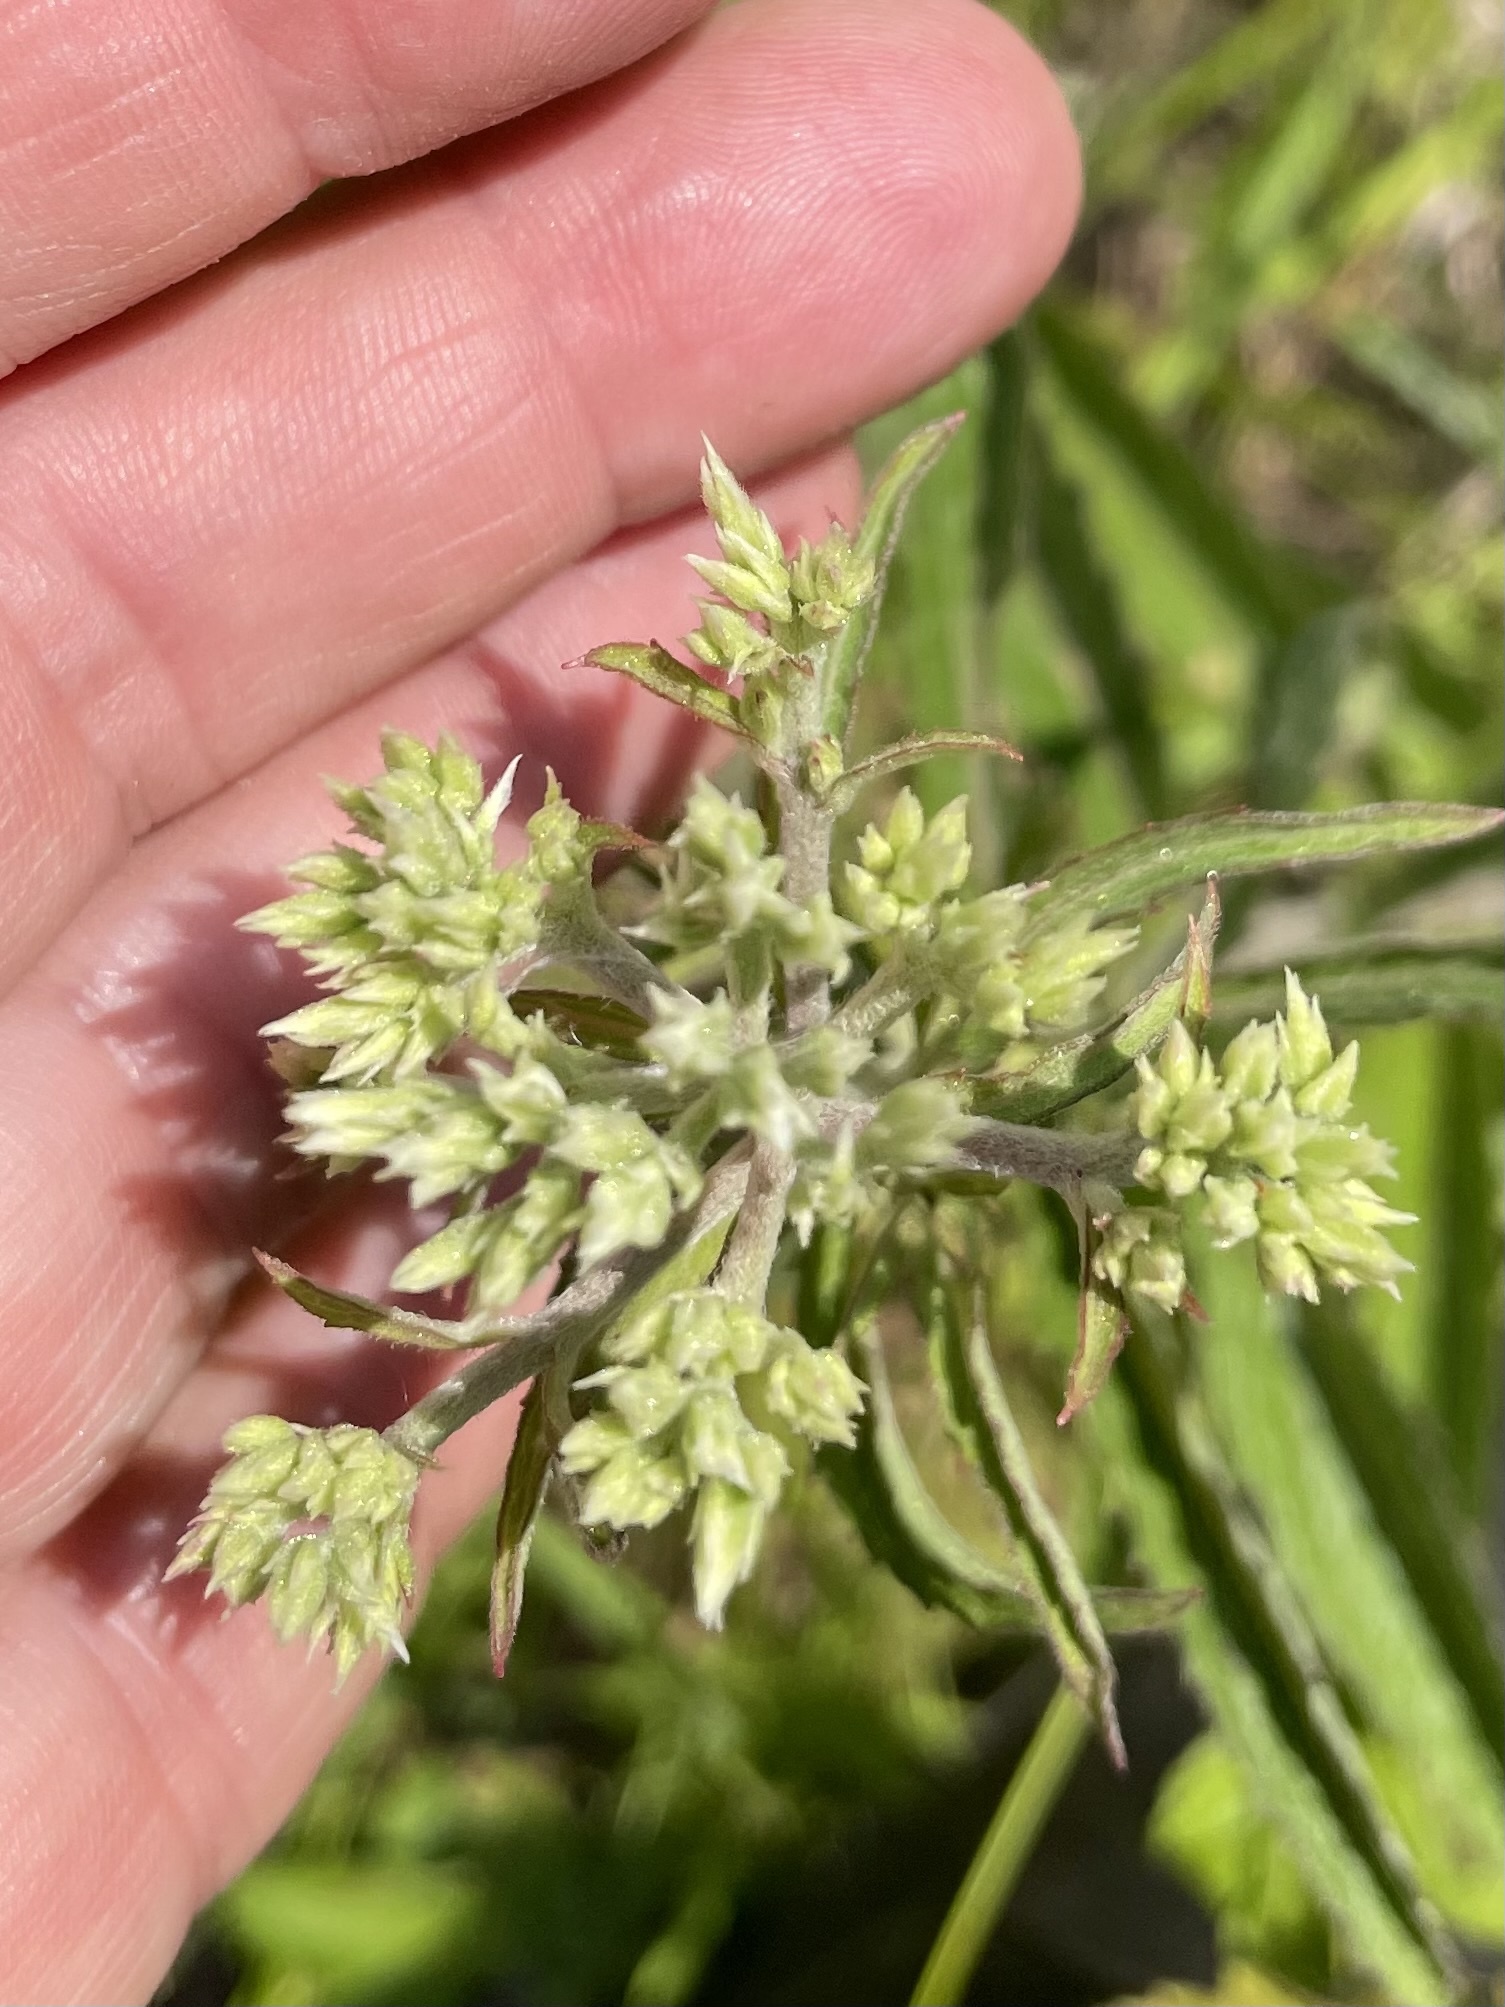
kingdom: Plantae
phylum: Tracheophyta
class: Magnoliopsida
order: Asterales
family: Asteraceae
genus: Eupatorium
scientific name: Eupatorium album
